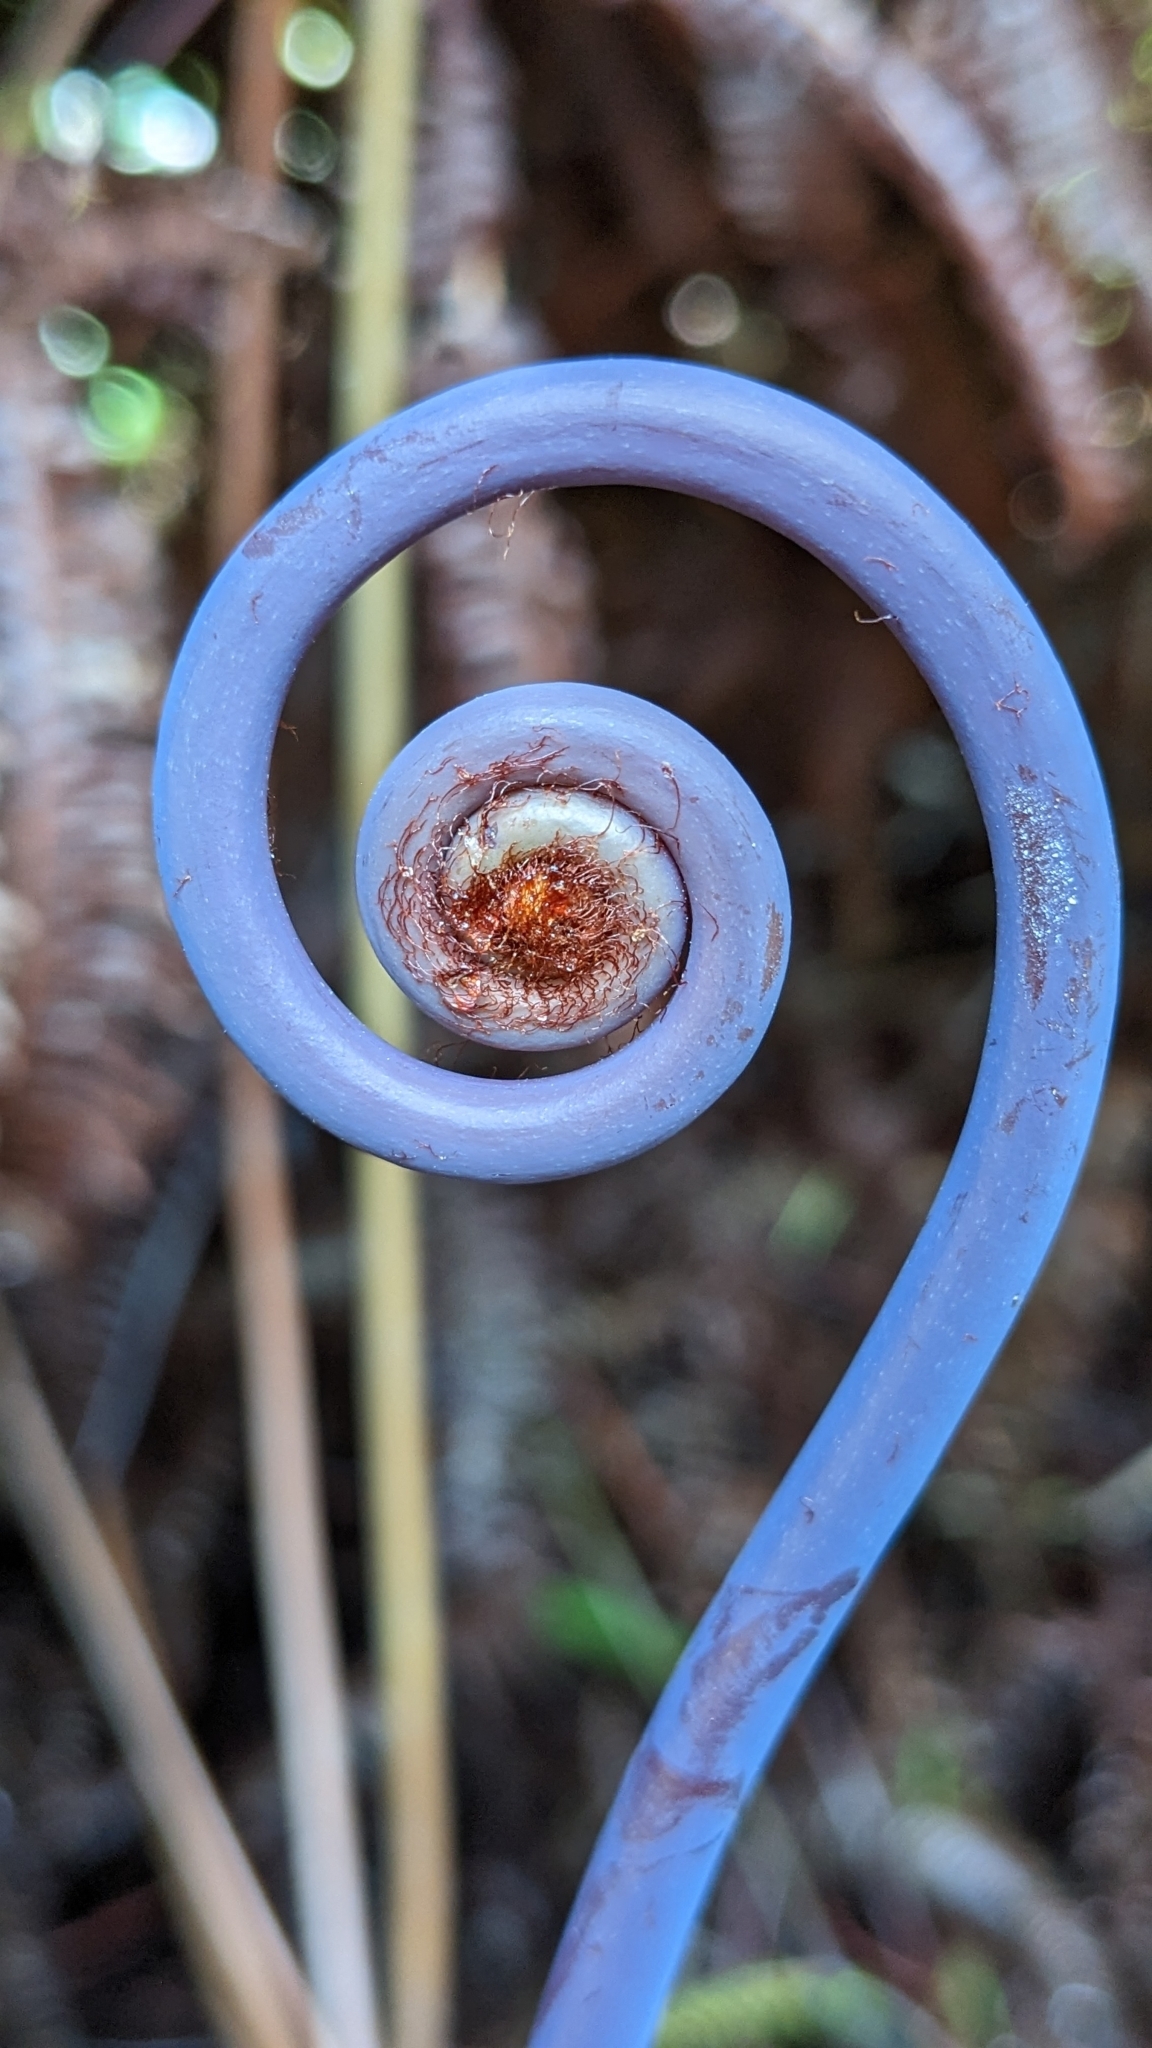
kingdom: Plantae
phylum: Tracheophyta
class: Polypodiopsida
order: Gleicheniales
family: Gleicheniaceae
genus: Dicranopteris
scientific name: Dicranopteris linearis
